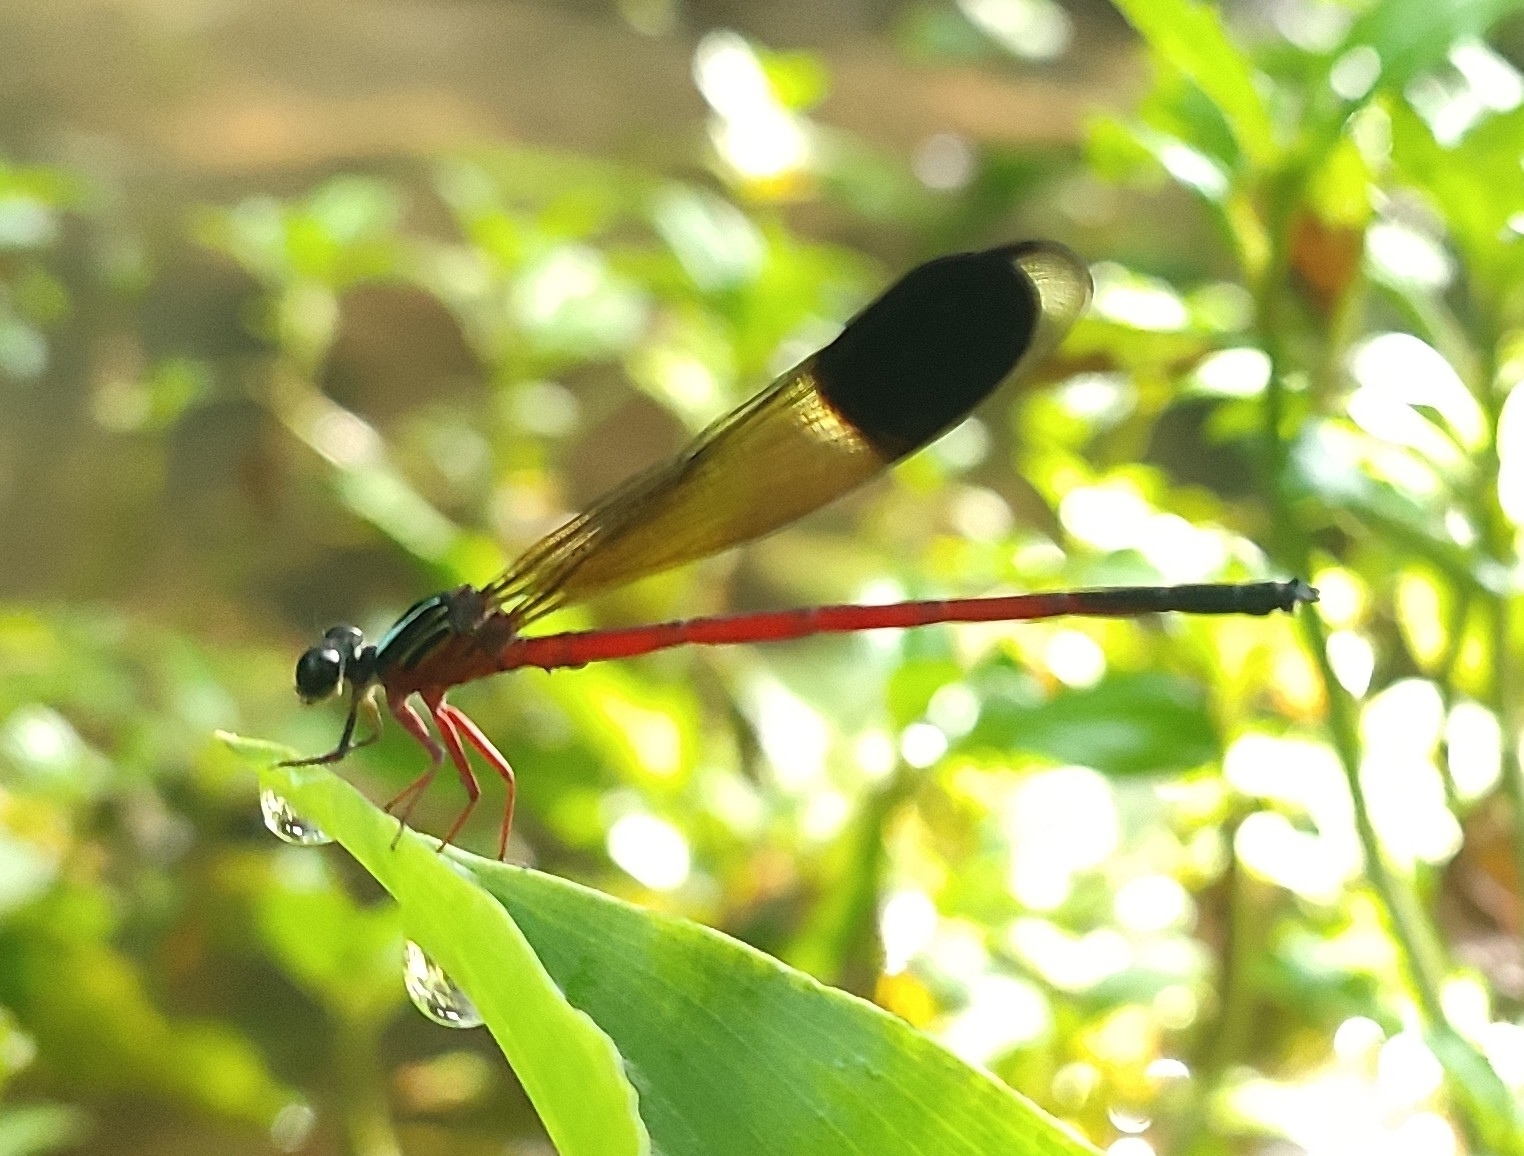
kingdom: Animalia
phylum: Arthropoda
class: Insecta
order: Odonata
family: Euphaeidae
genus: Euphaea
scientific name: Euphaea fraseri
